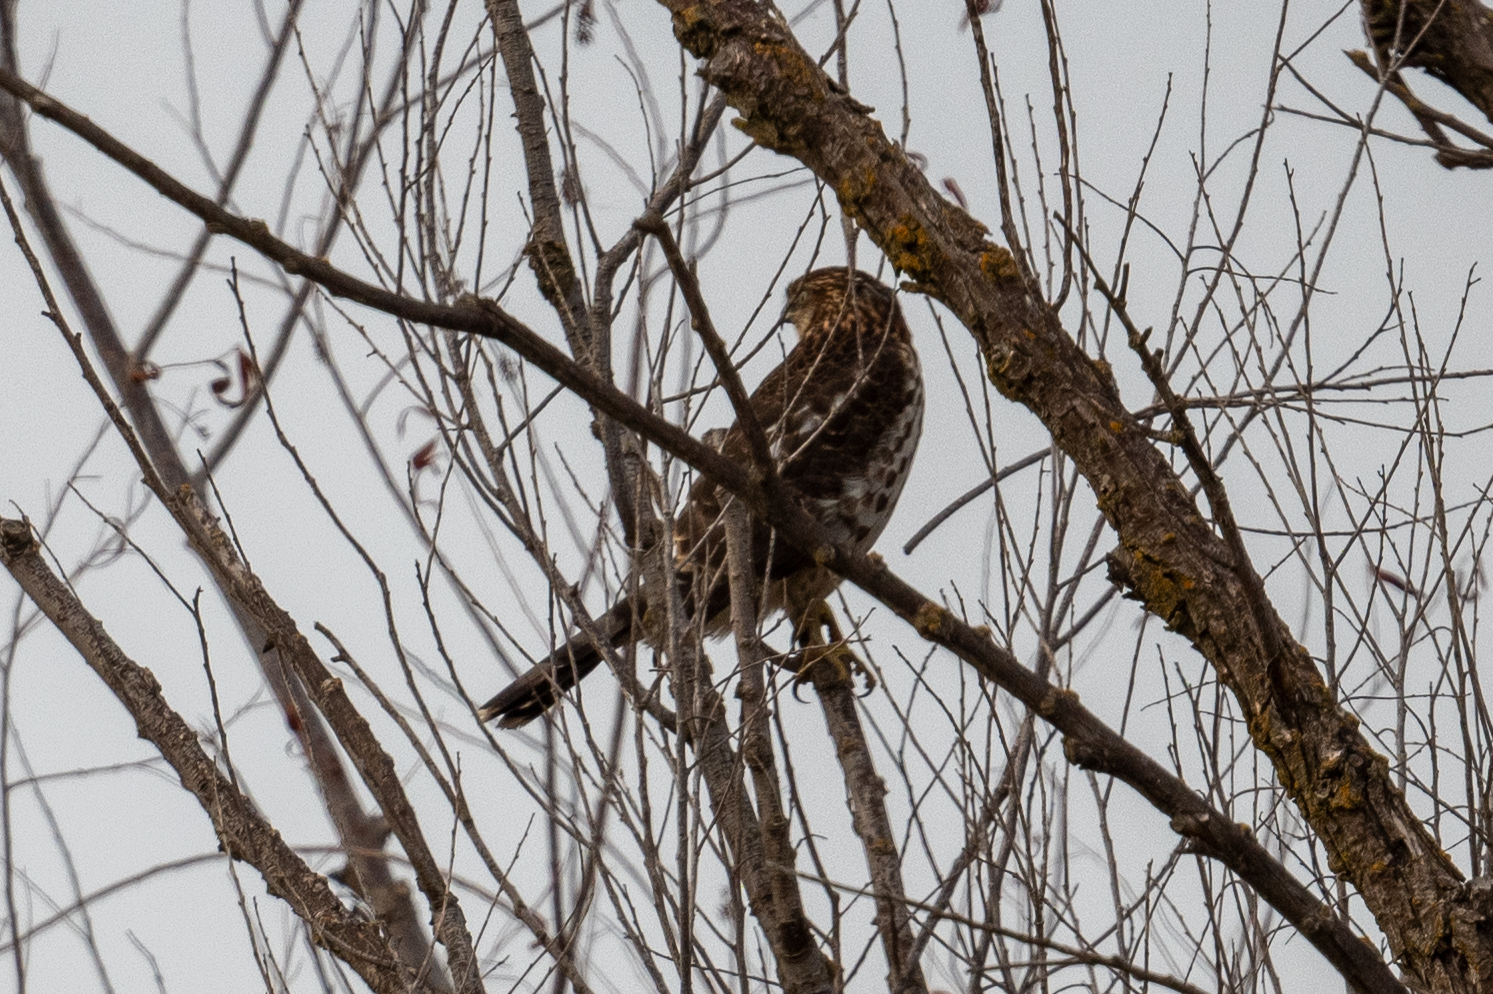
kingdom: Animalia
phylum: Chordata
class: Aves
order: Accipitriformes
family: Accipitridae
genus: Accipiter
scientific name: Accipiter cooperii
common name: Cooper's hawk
